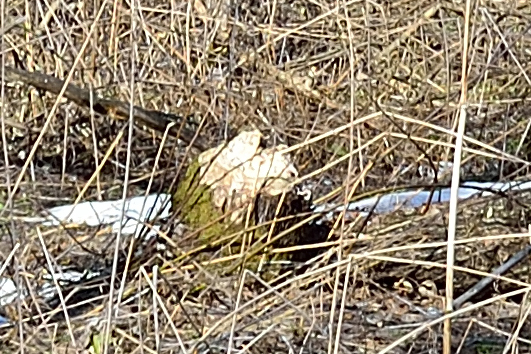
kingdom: Animalia
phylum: Chordata
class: Mammalia
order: Rodentia
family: Castoridae
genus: Castor
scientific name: Castor fiber
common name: Eurasian beaver
